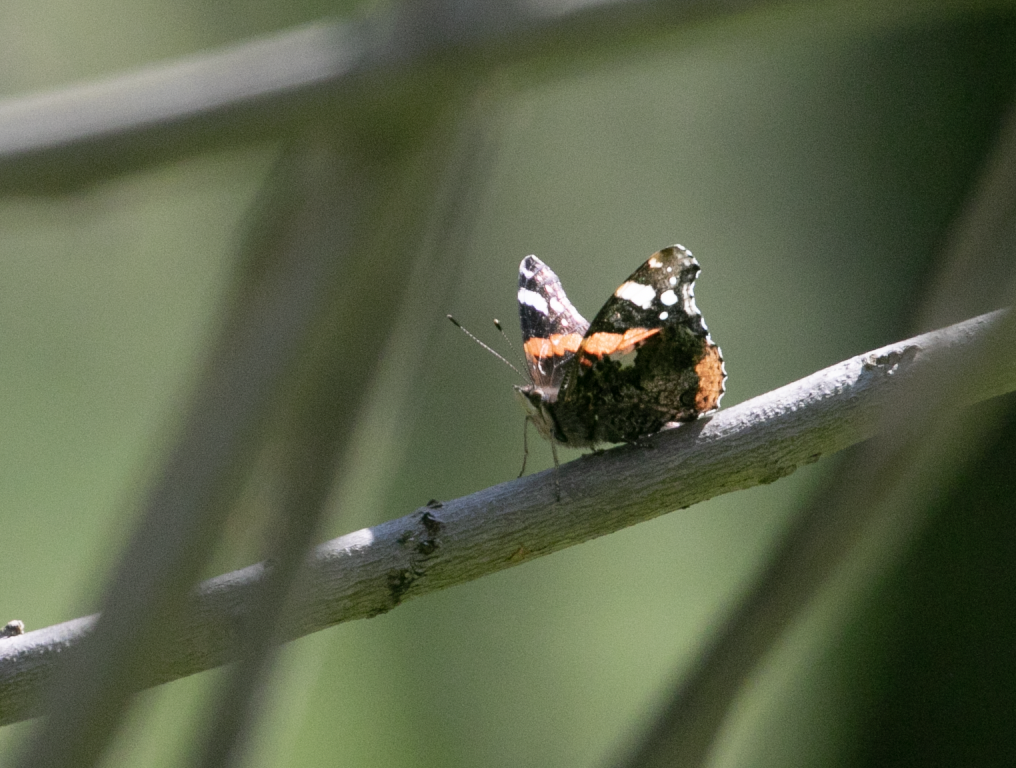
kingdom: Animalia
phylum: Arthropoda
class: Insecta
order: Lepidoptera
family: Nymphalidae
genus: Vanessa
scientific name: Vanessa atalanta
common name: Red admiral
